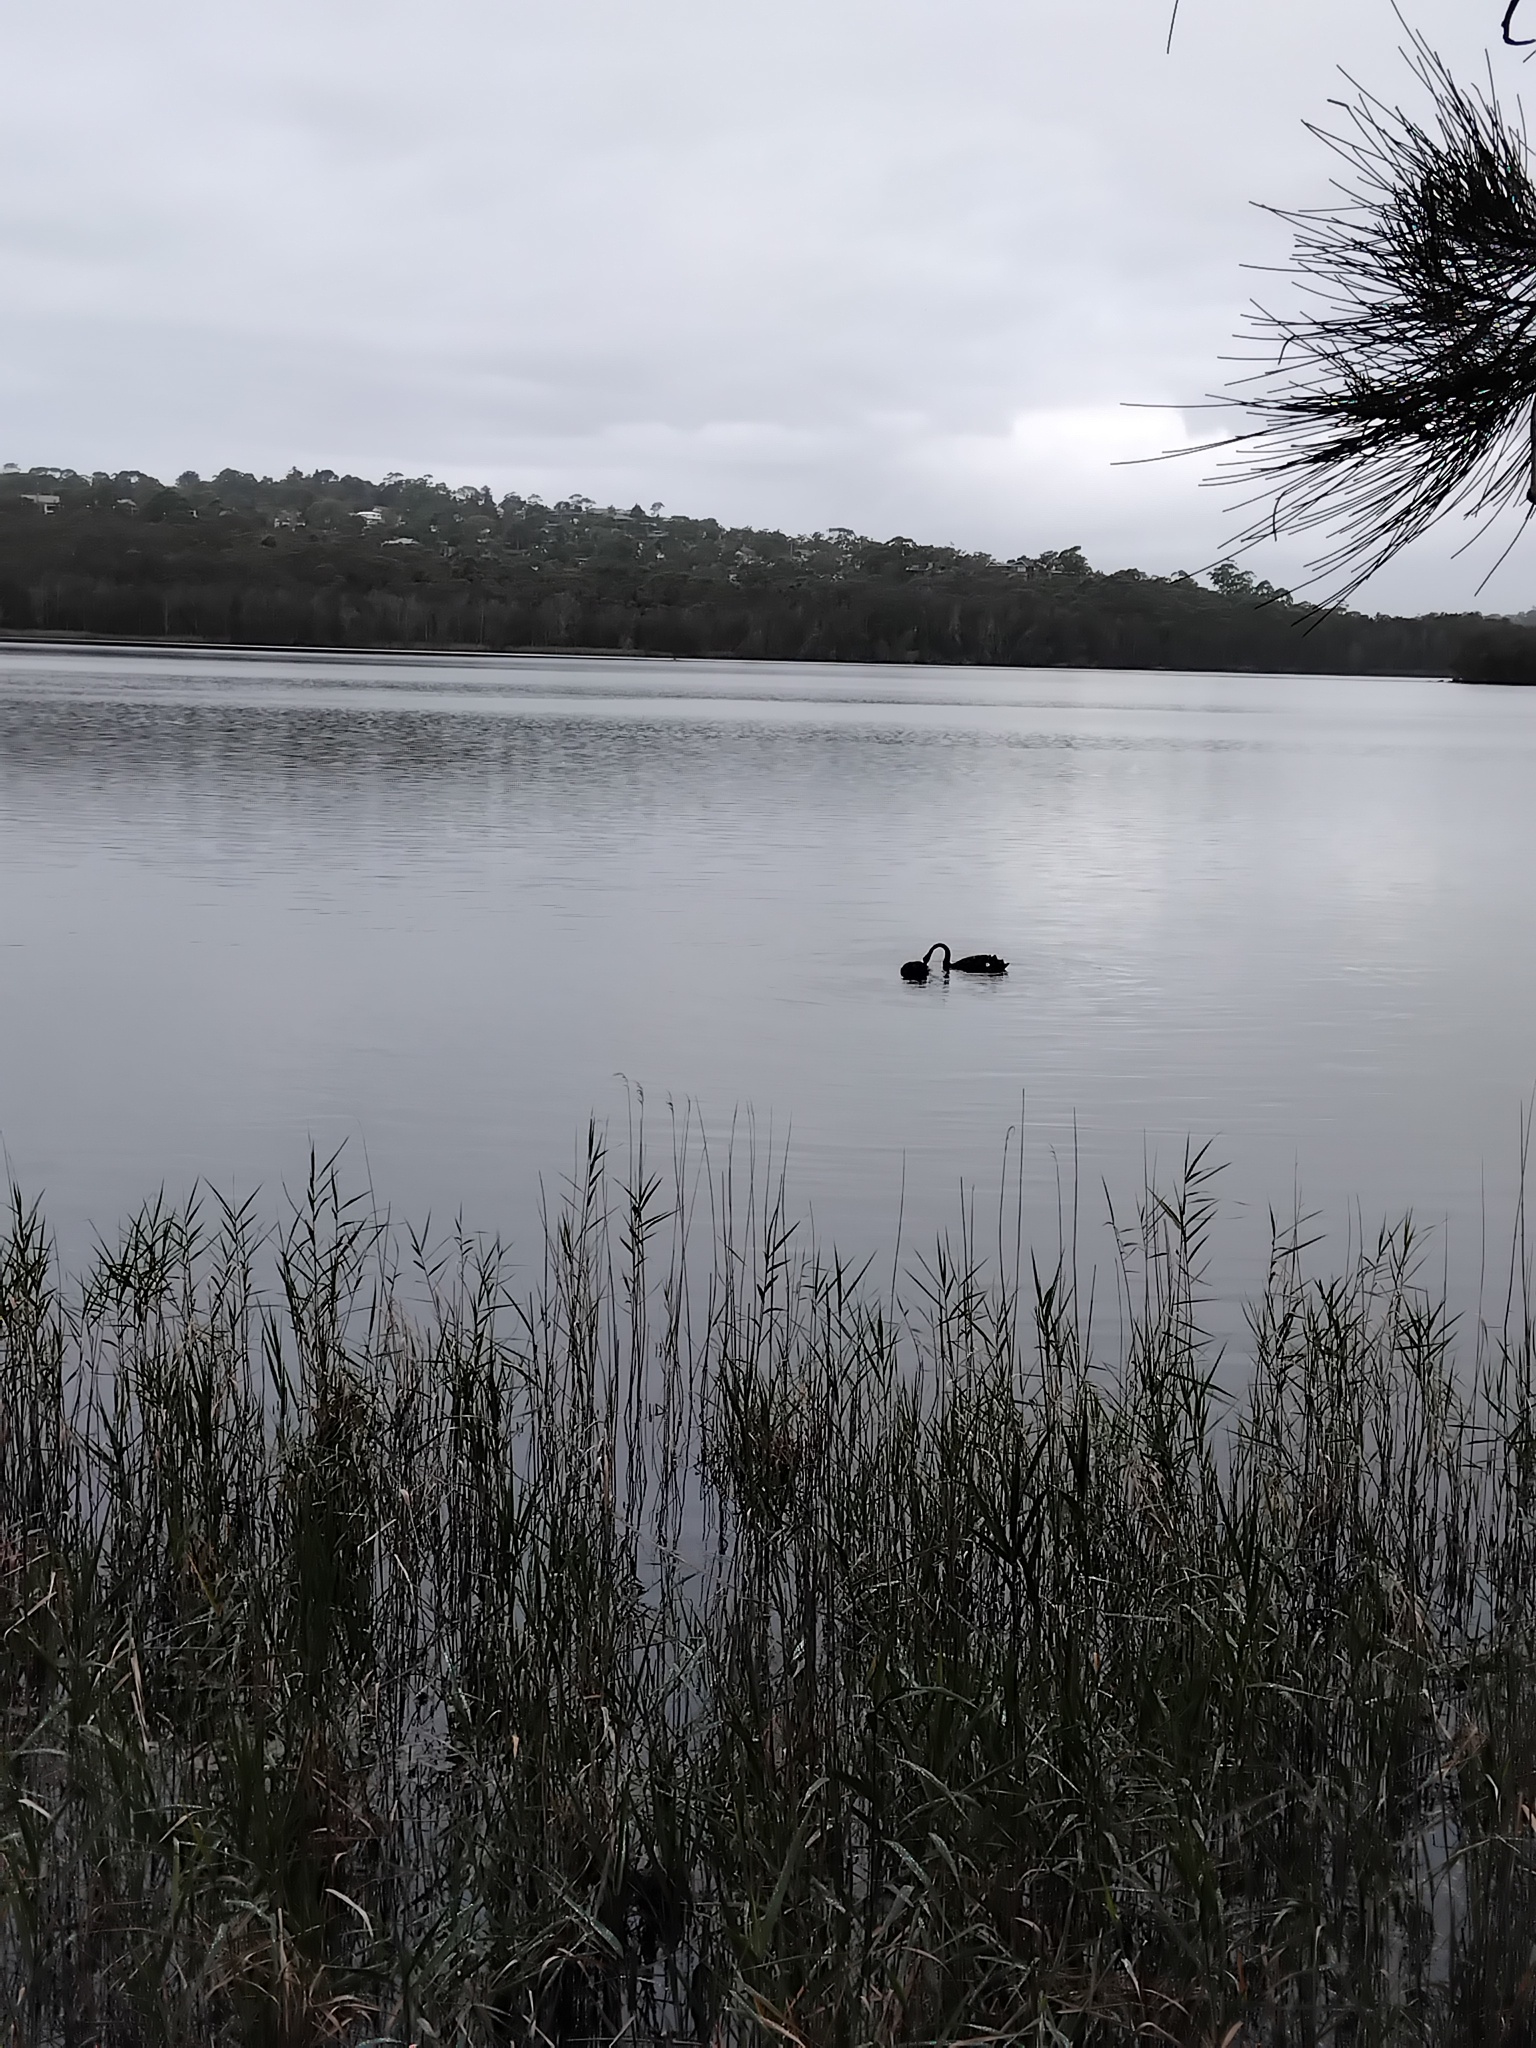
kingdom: Animalia
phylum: Chordata
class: Aves
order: Anseriformes
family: Anatidae
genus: Cygnus
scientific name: Cygnus atratus
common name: Black swan
